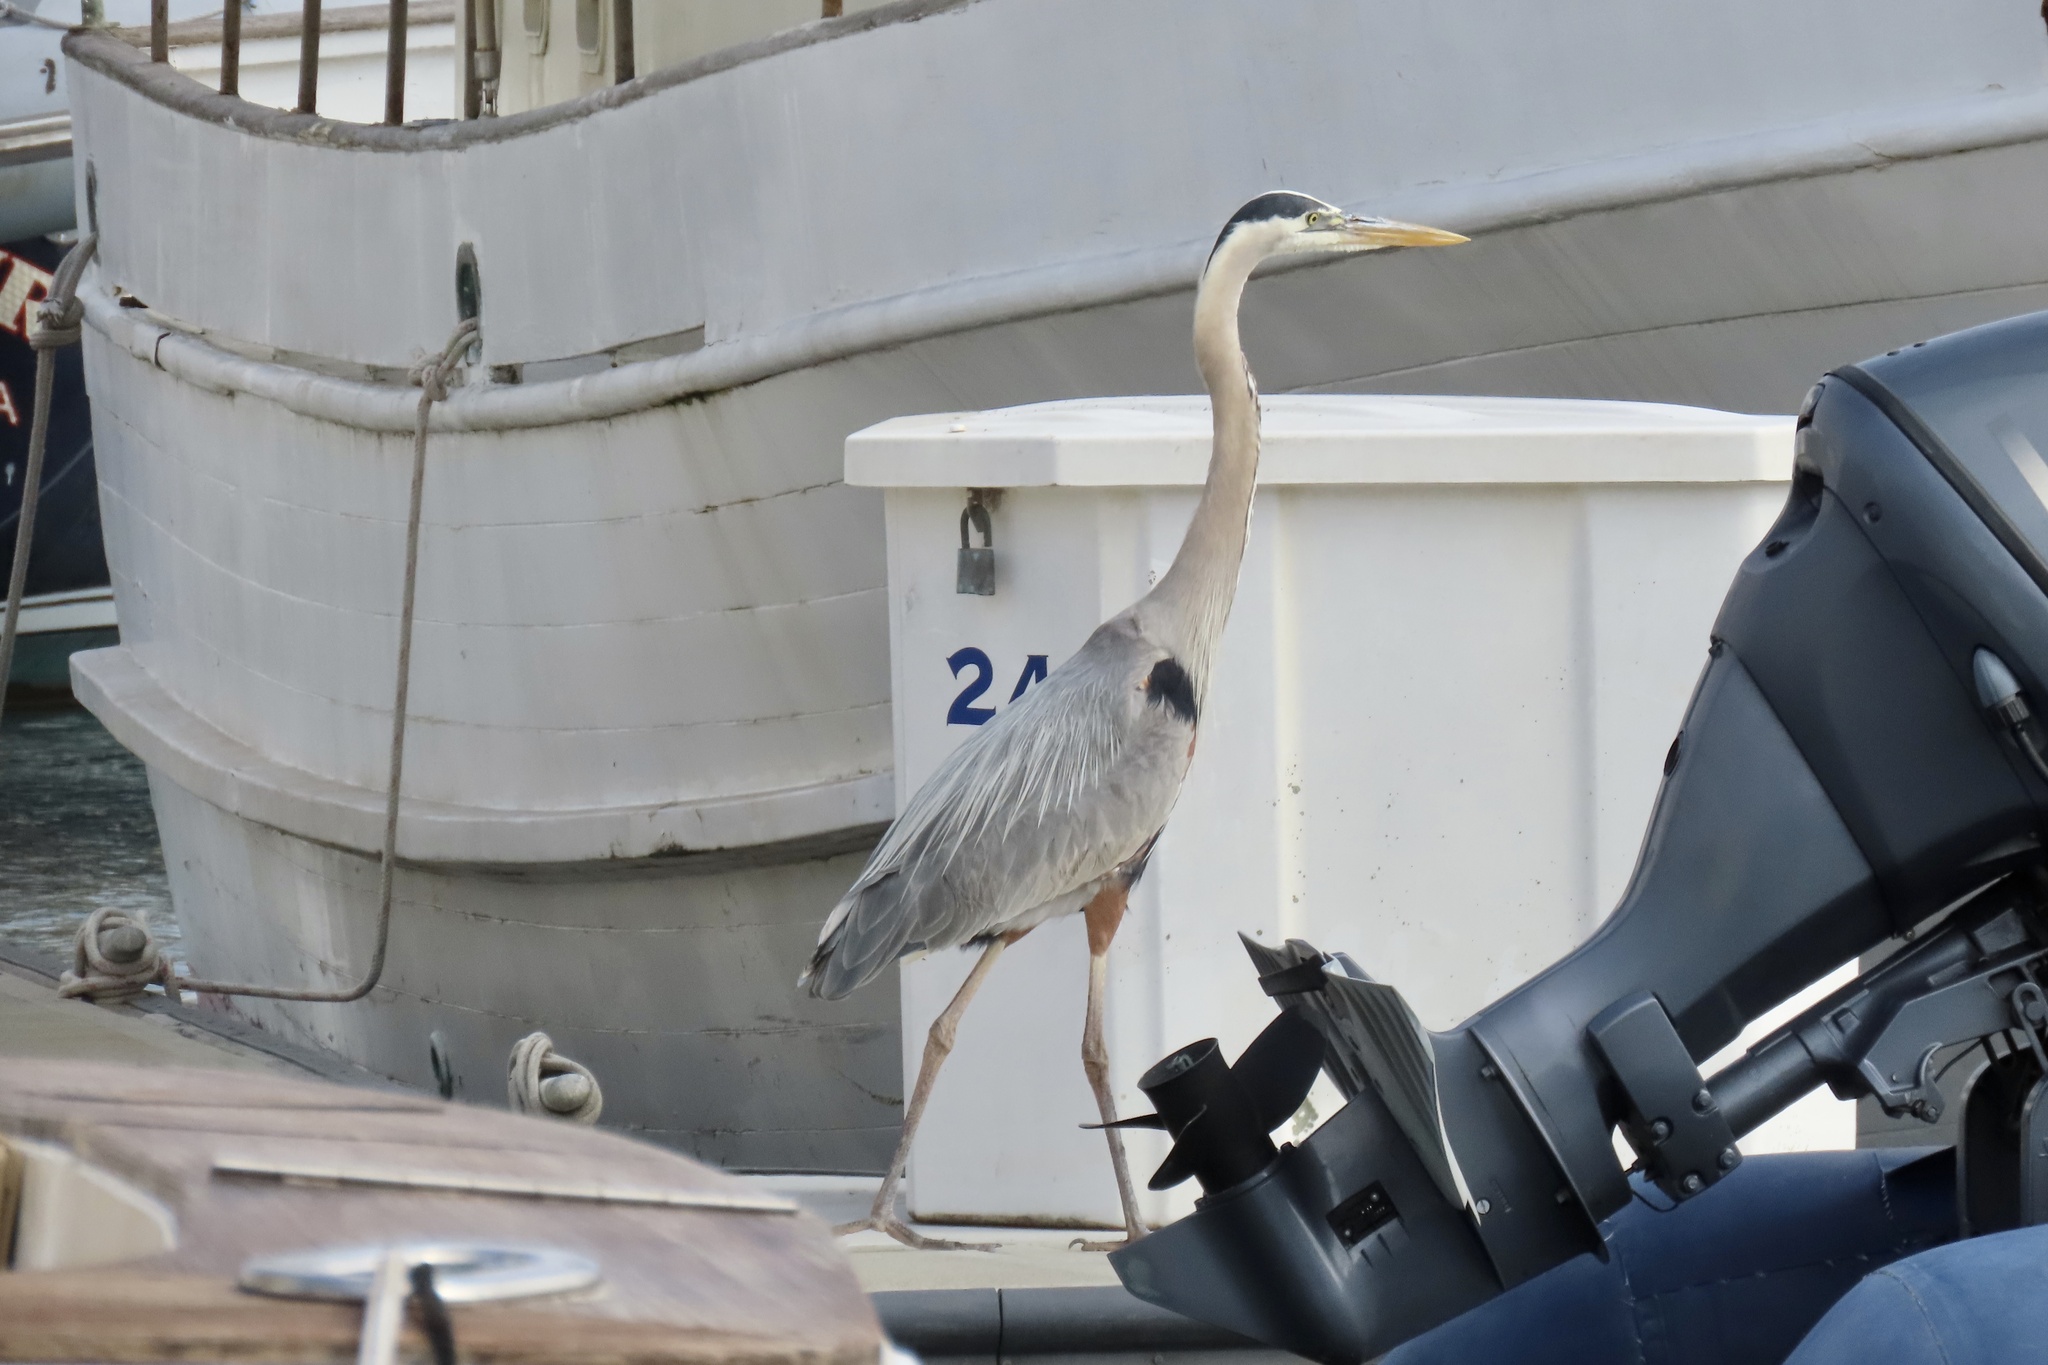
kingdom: Animalia
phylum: Chordata
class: Aves
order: Pelecaniformes
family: Ardeidae
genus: Ardea
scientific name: Ardea herodias
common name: Great blue heron
